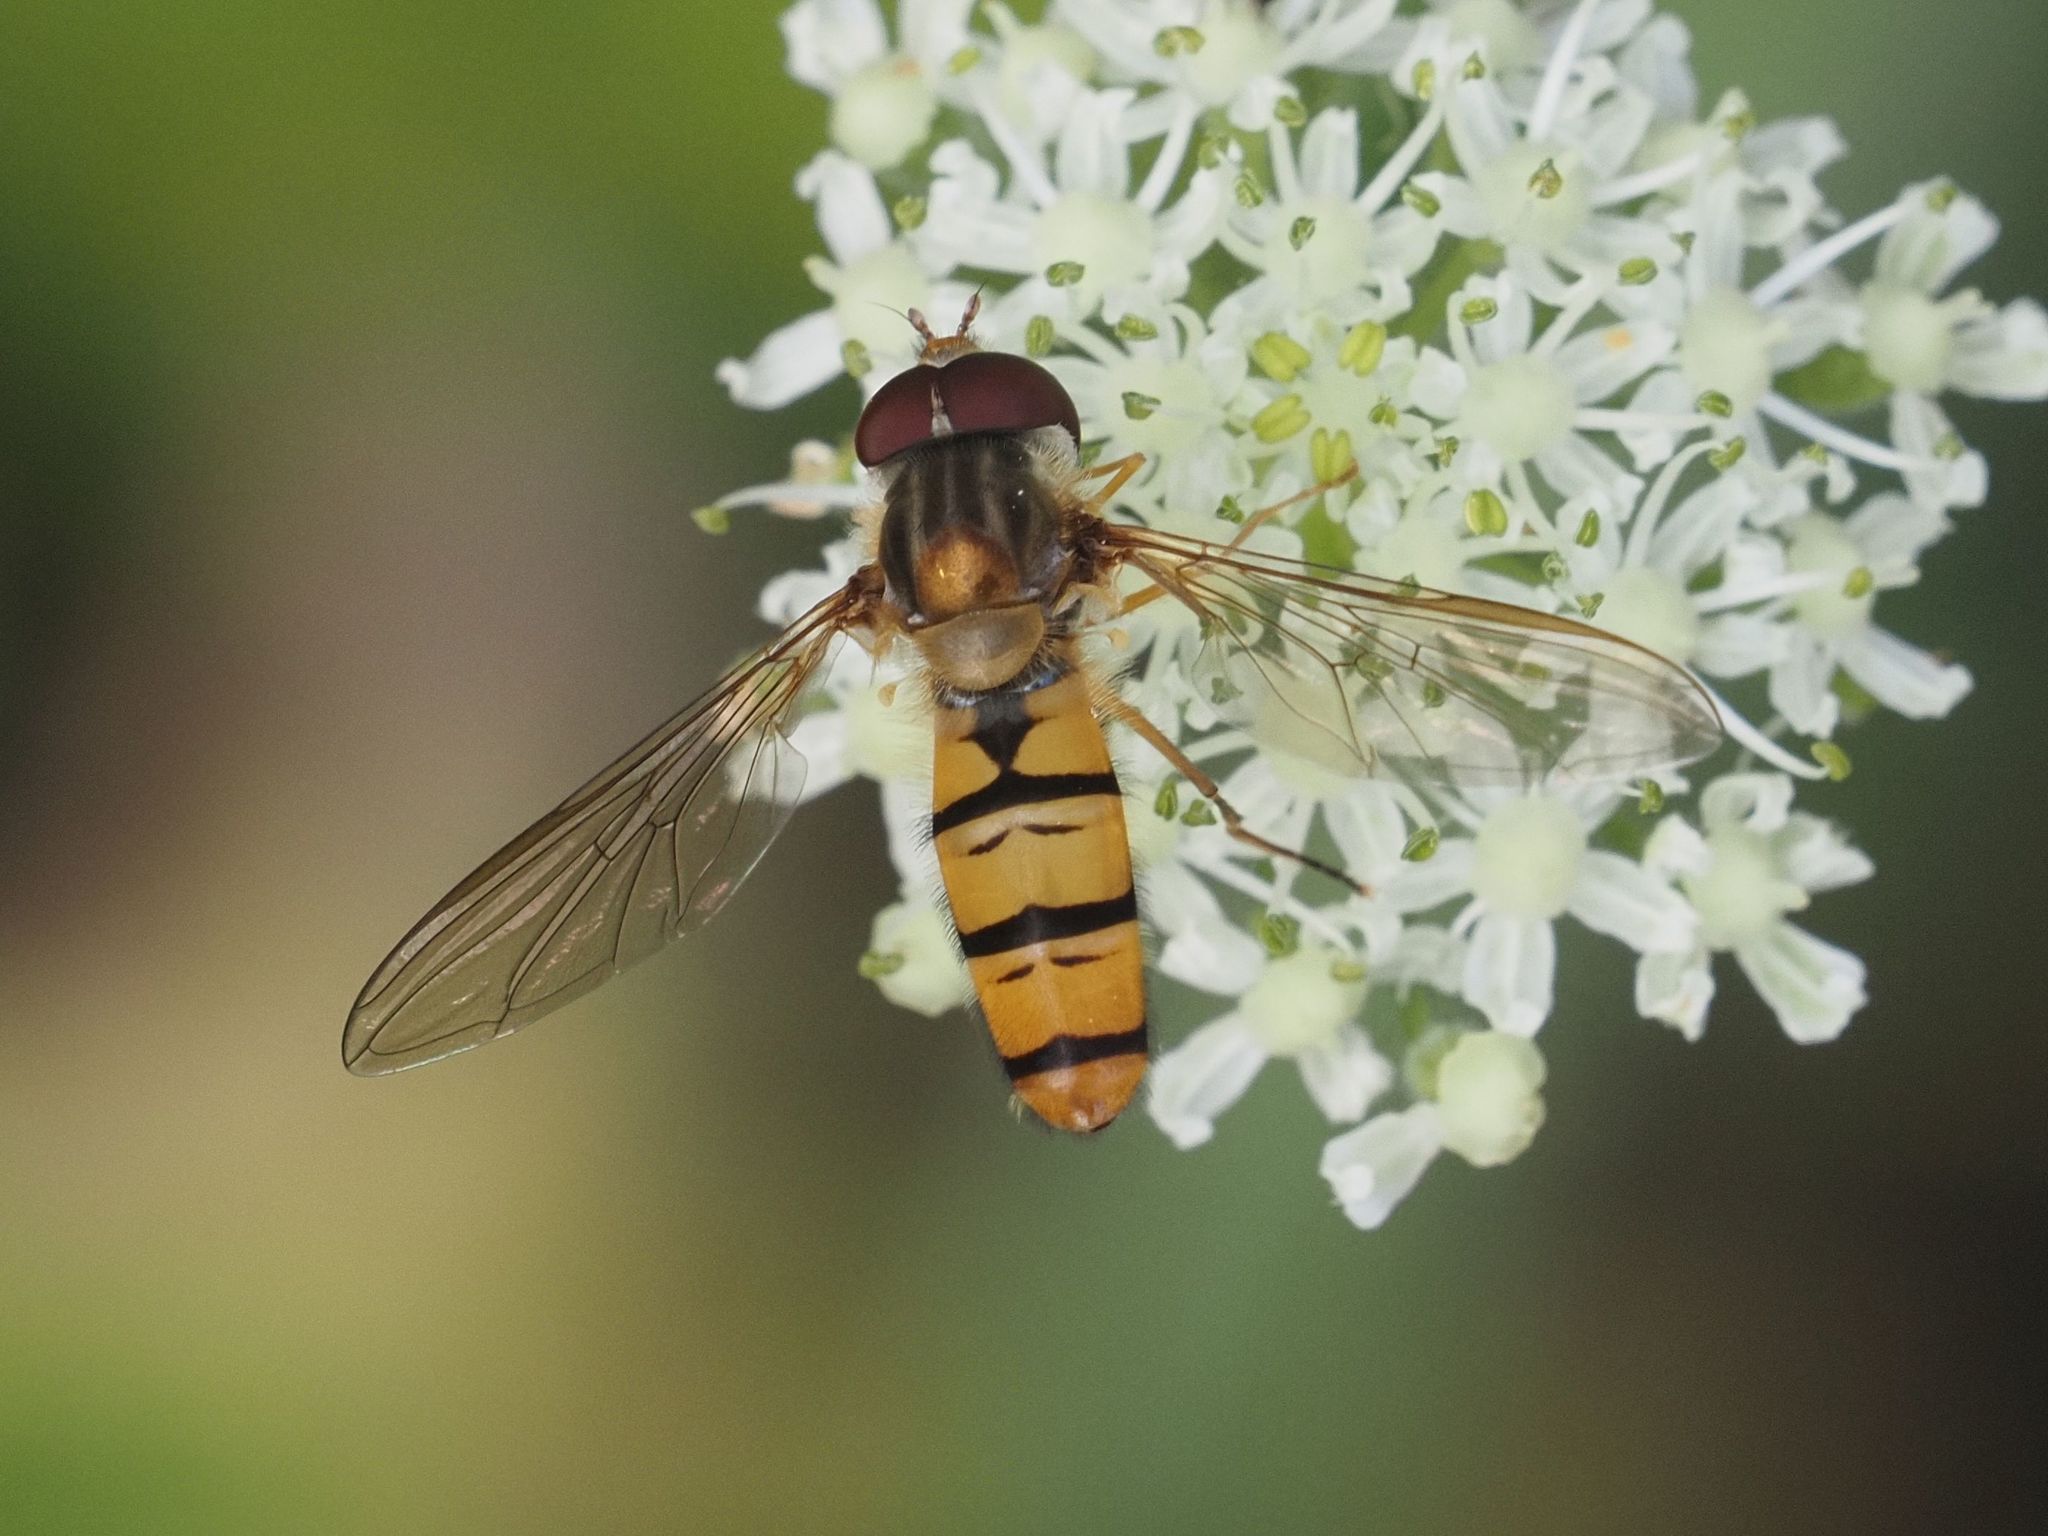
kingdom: Animalia
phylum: Arthropoda
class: Insecta
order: Diptera
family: Syrphidae
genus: Episyrphus
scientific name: Episyrphus balteatus
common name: Marmalade hoverfly
